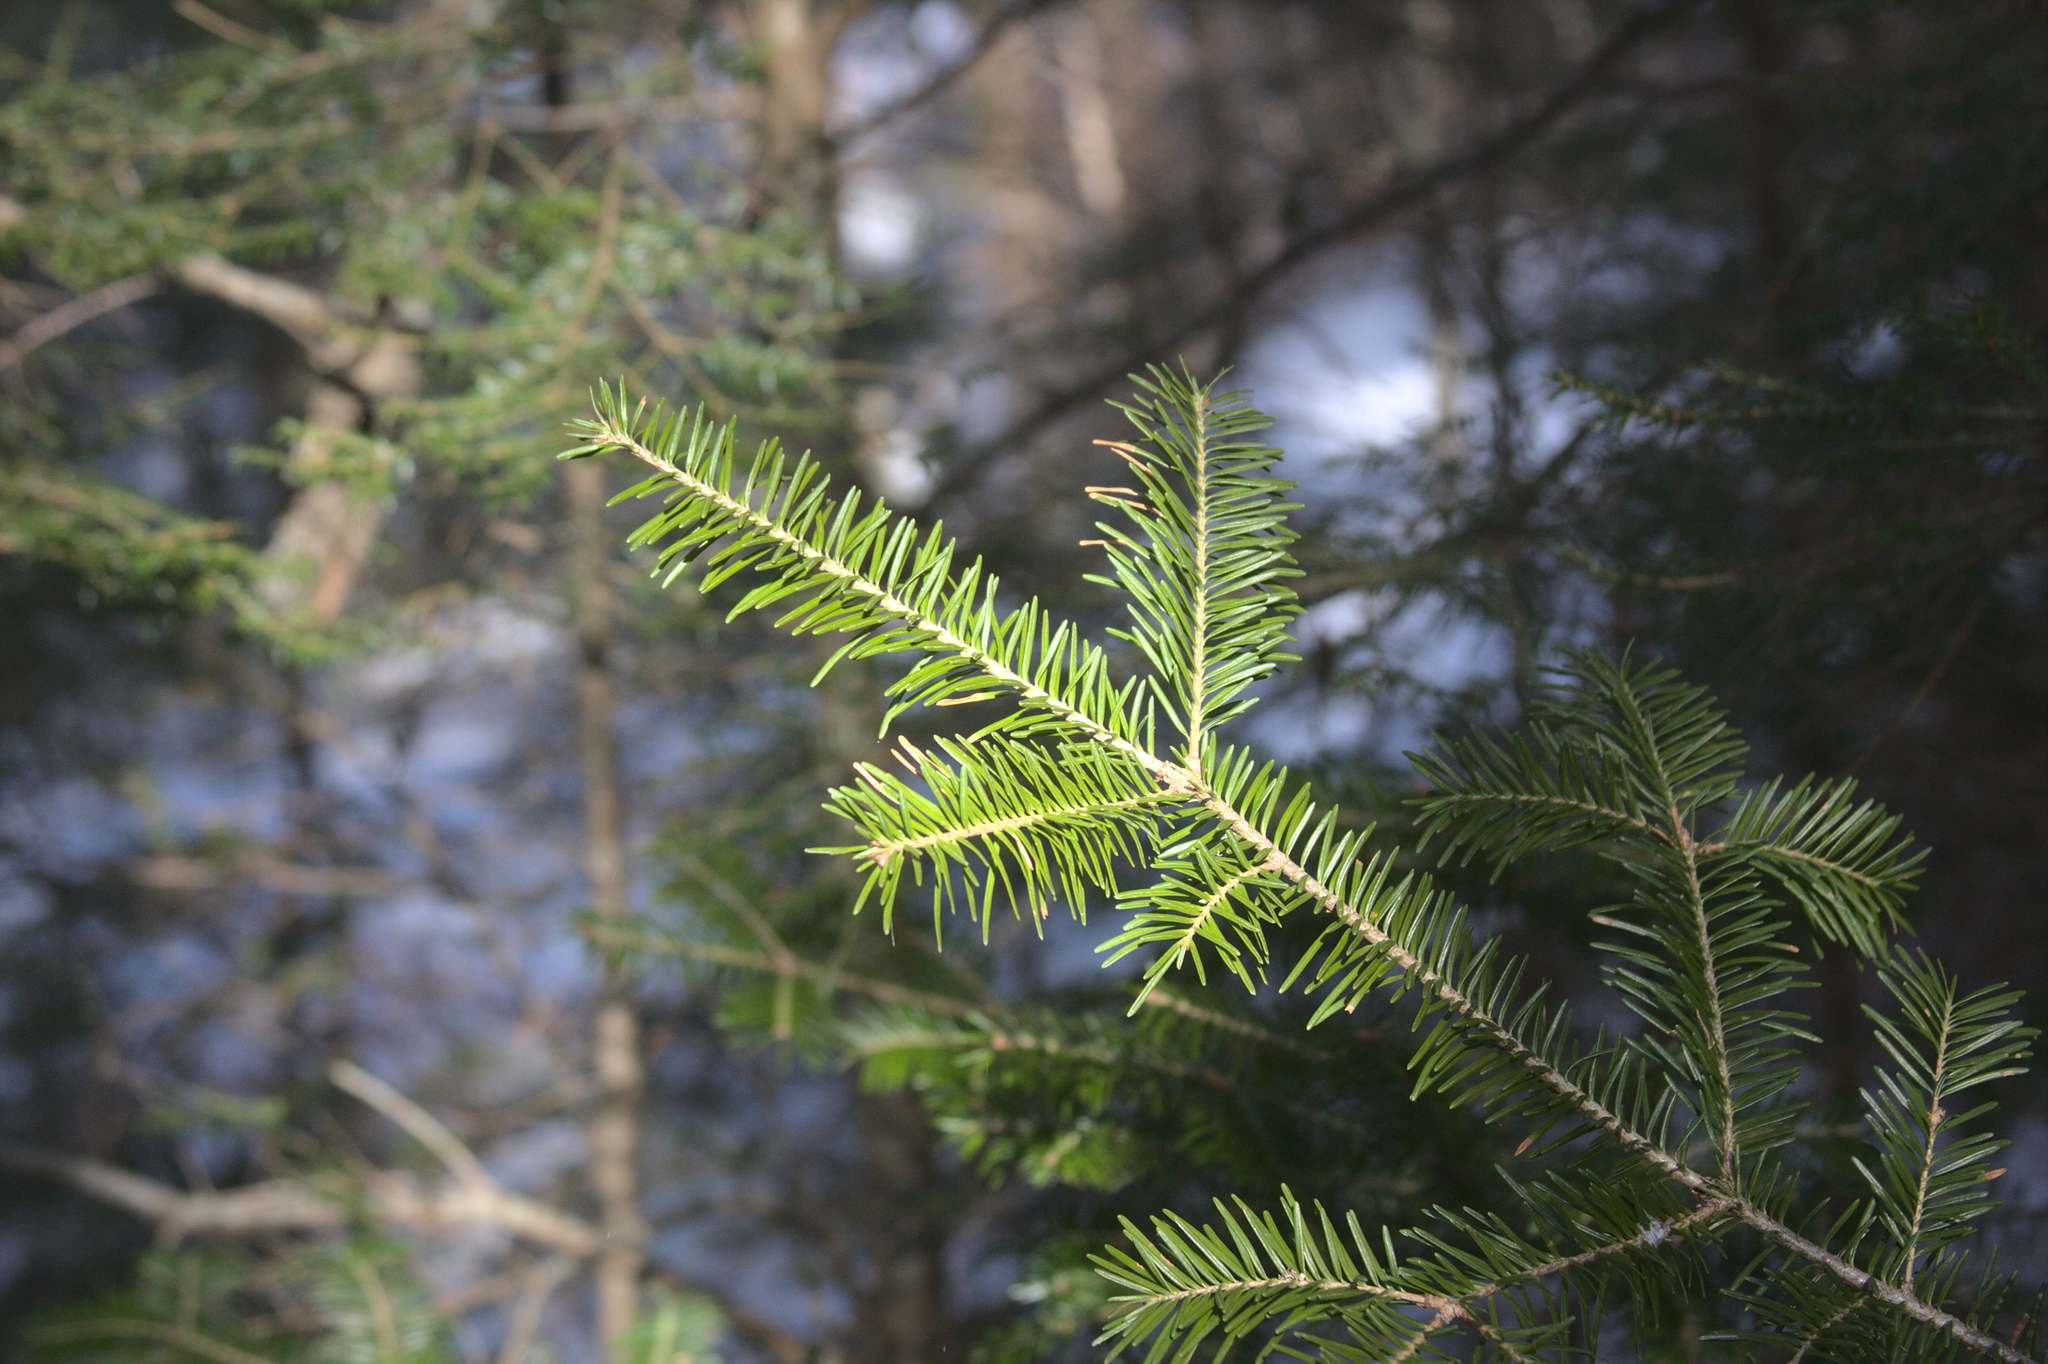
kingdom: Plantae
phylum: Tracheophyta
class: Pinopsida
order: Pinales
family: Pinaceae
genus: Abies
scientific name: Abies balsamea
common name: Balsam fir
